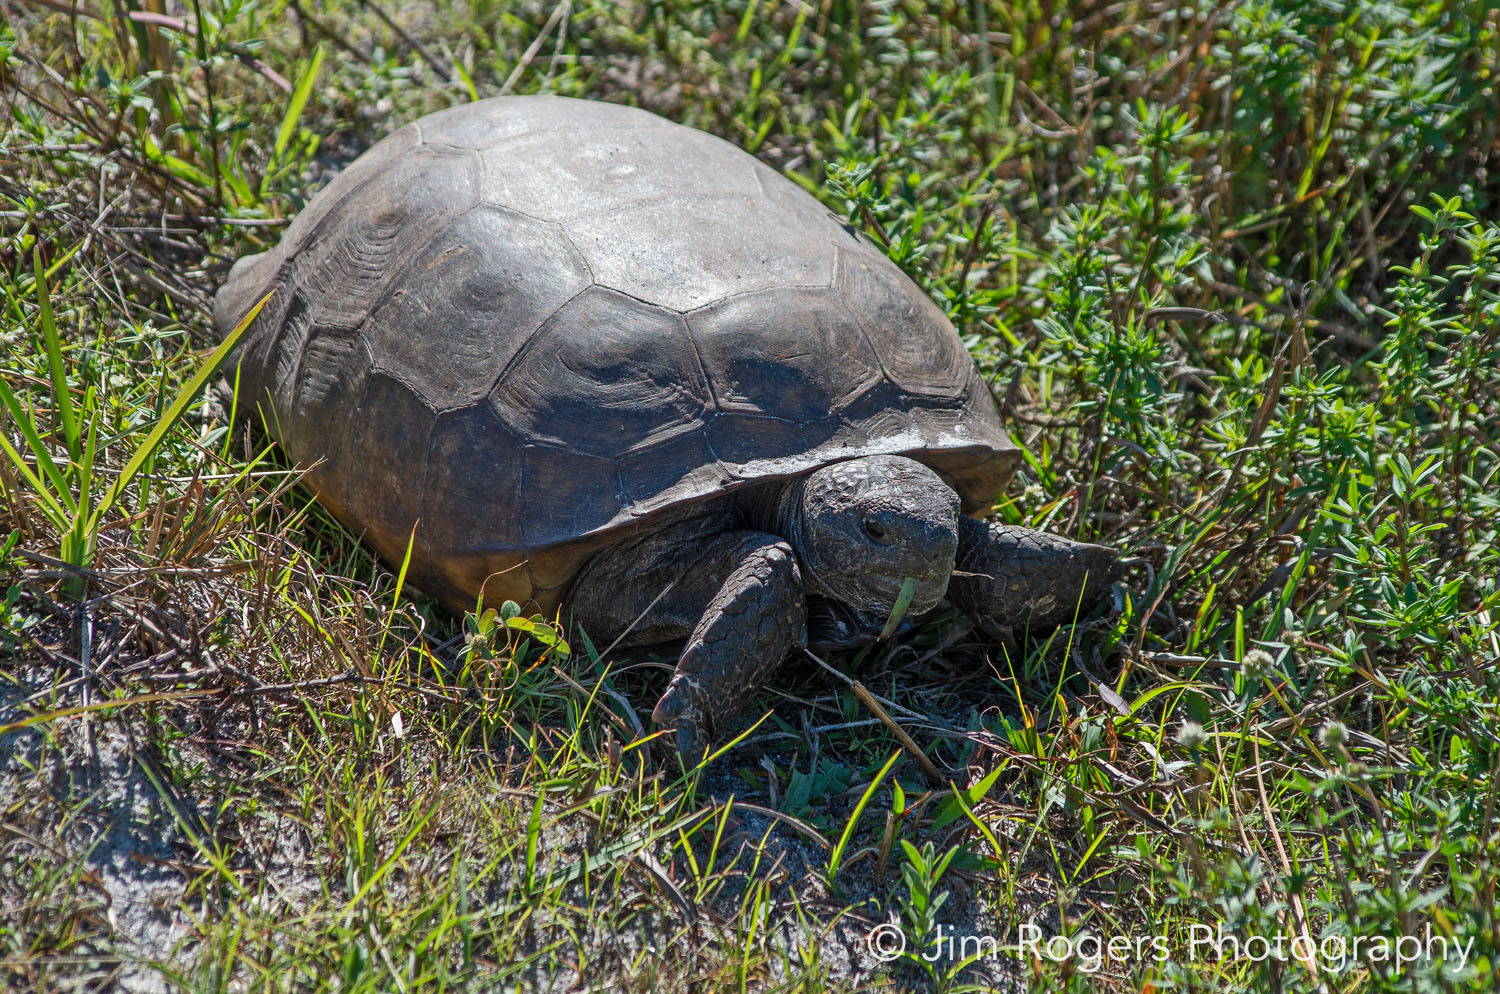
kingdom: Animalia
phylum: Chordata
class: Testudines
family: Testudinidae
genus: Gopherus
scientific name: Gopherus polyphemus
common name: Florida gopher tortoise
